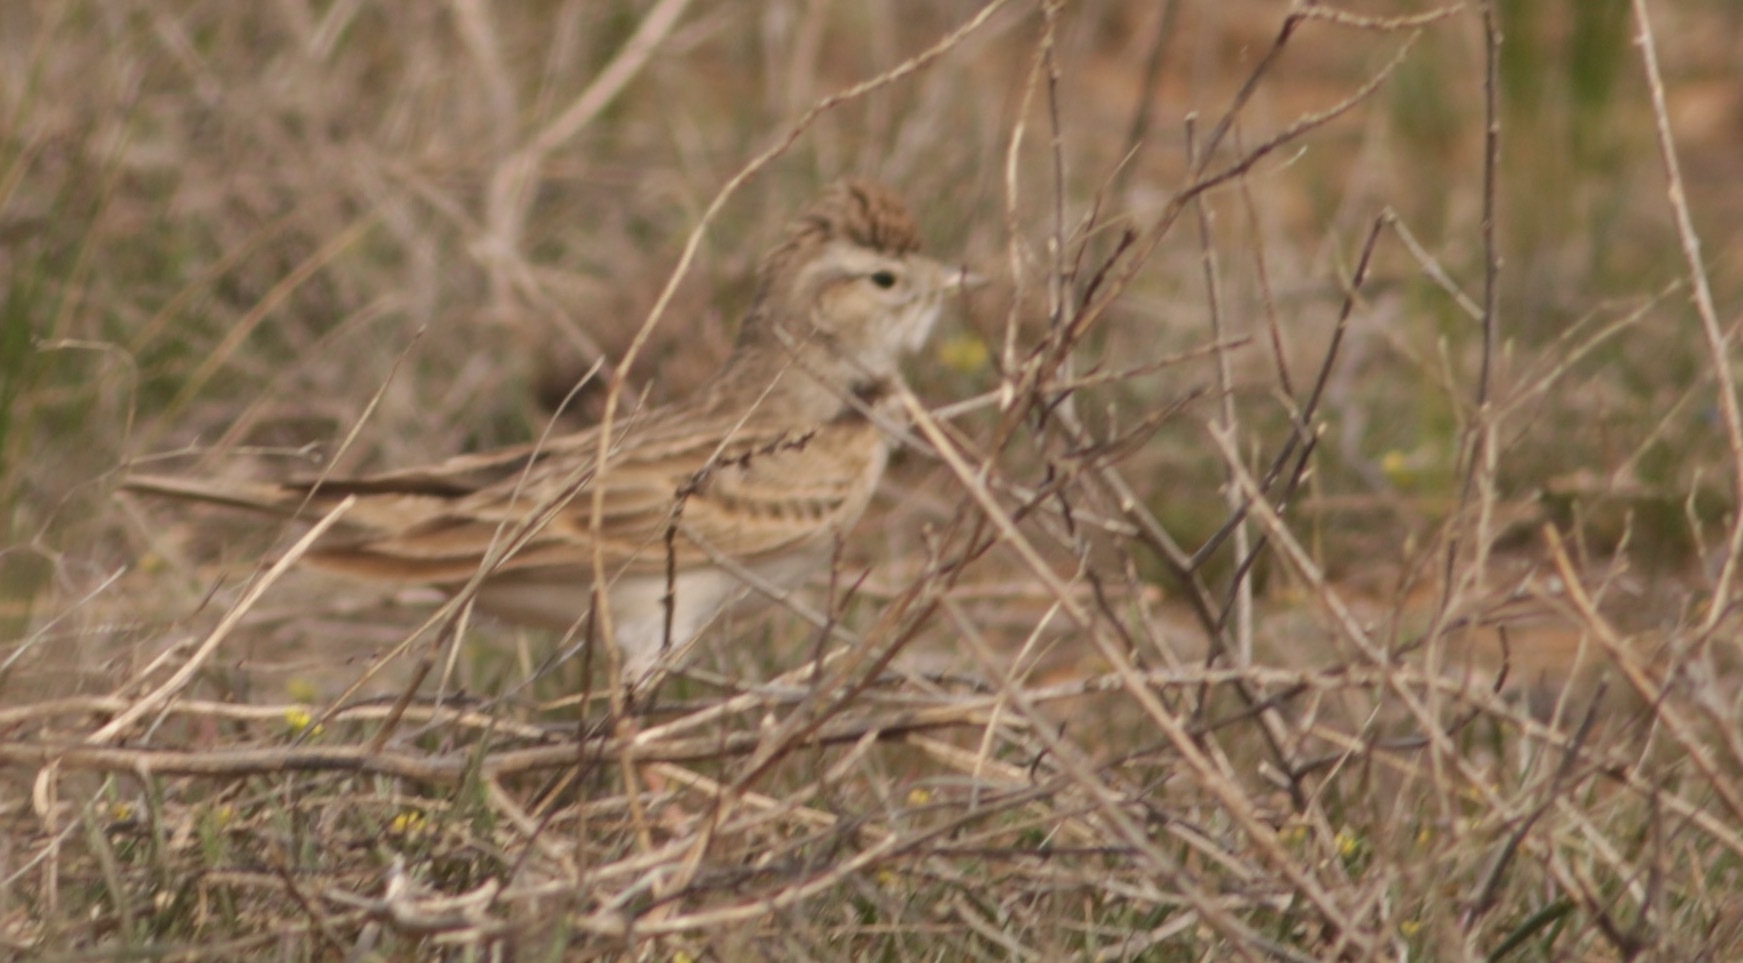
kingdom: Animalia
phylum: Chordata
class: Aves
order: Passeriformes
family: Alaudidae
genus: Calandrella
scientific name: Calandrella brachydactyla
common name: Greater short-toed lark
